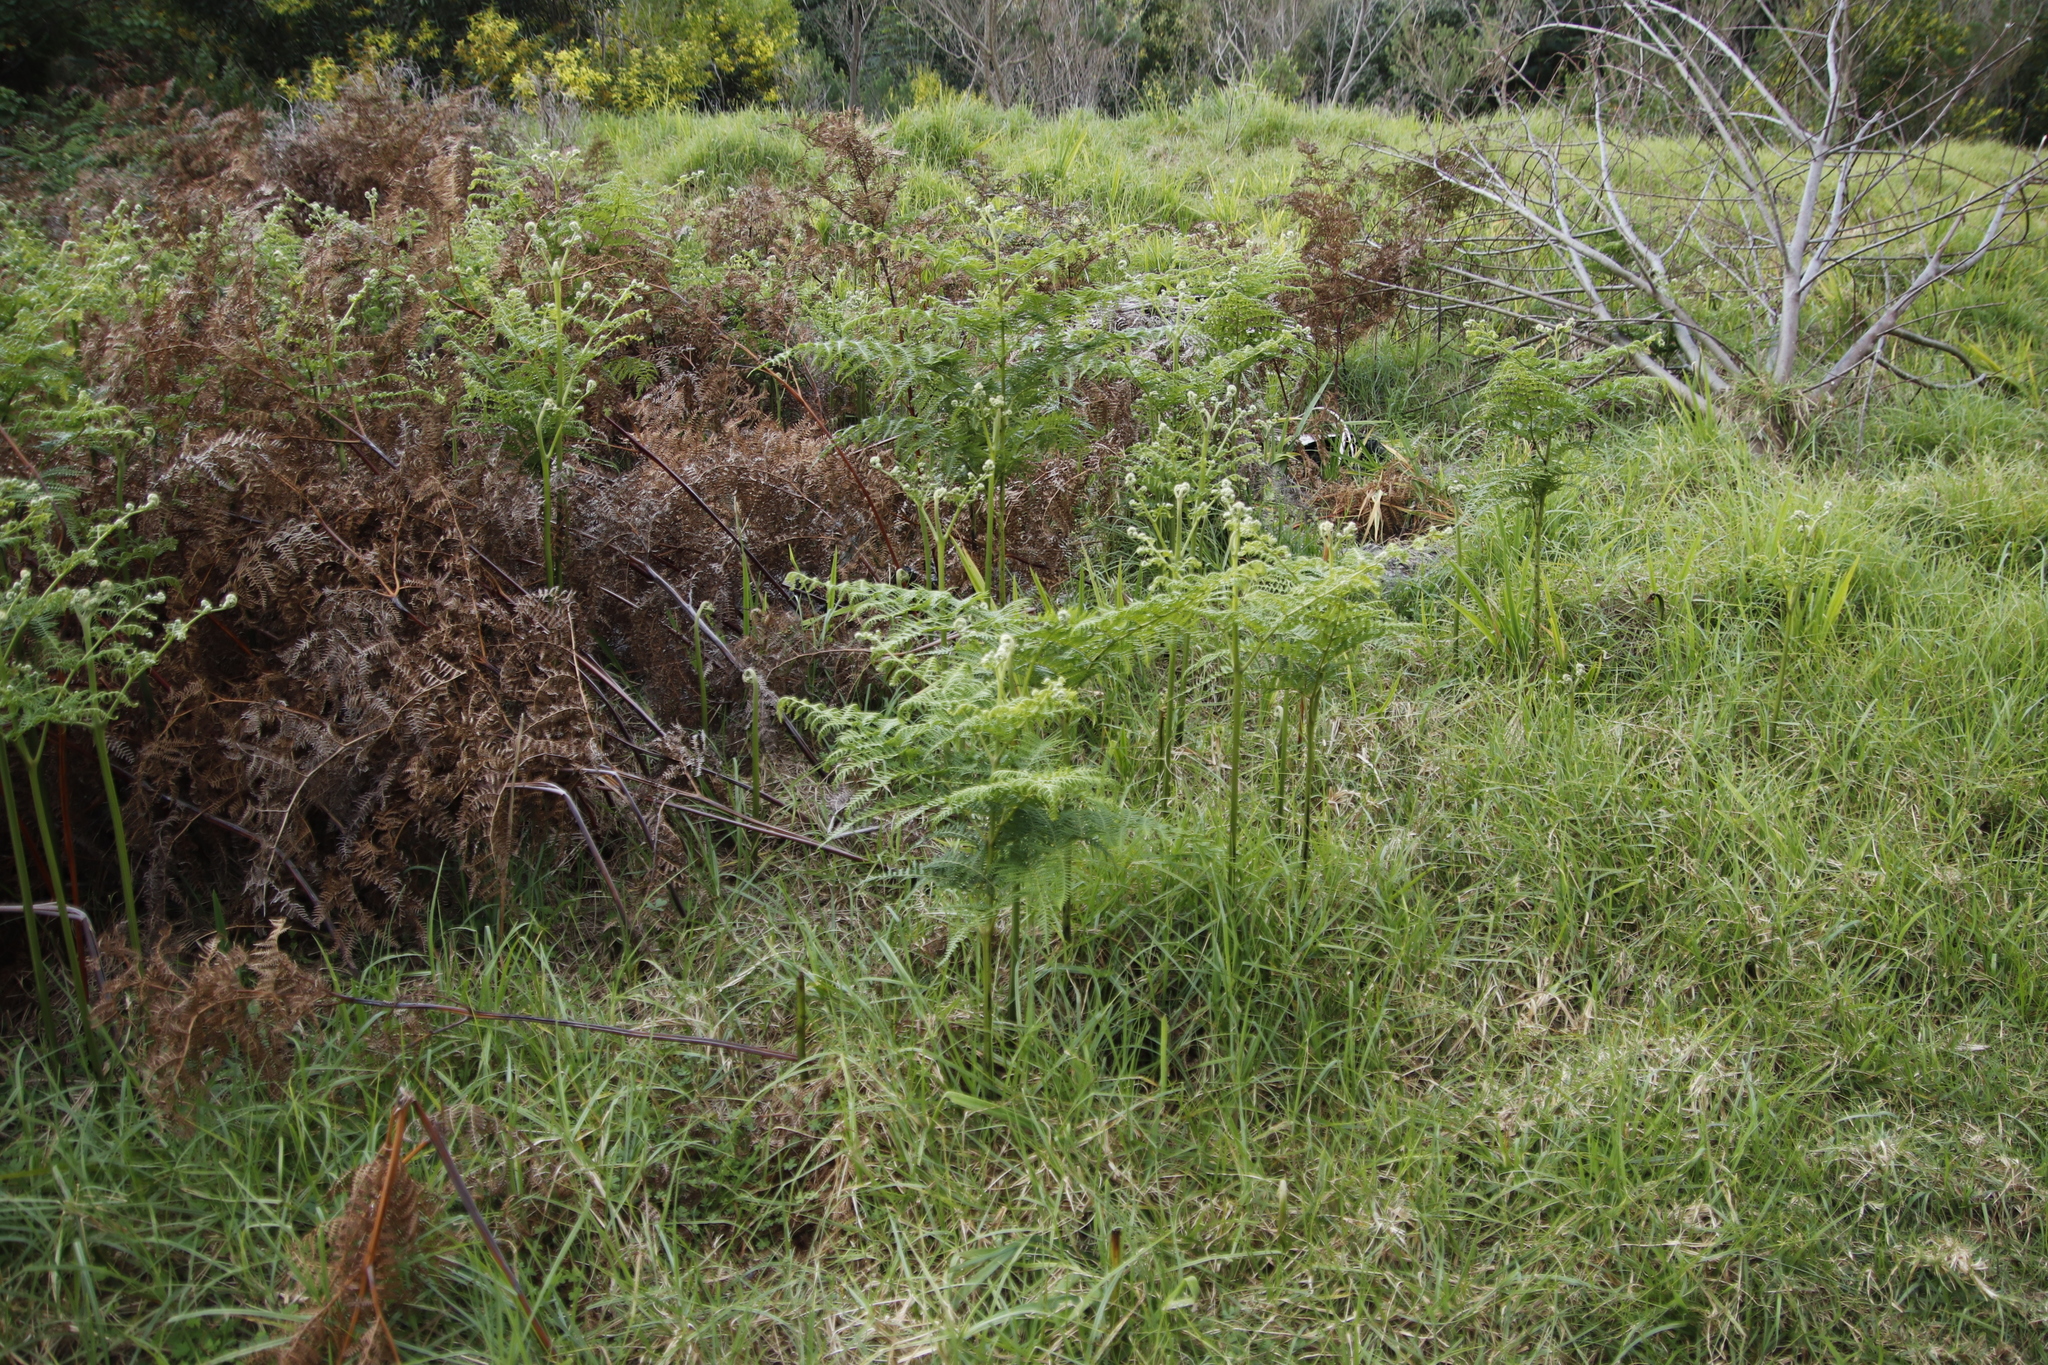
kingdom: Plantae
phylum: Tracheophyta
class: Polypodiopsida
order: Polypodiales
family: Dennstaedtiaceae
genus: Pteridium
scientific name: Pteridium aquilinum
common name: Bracken
